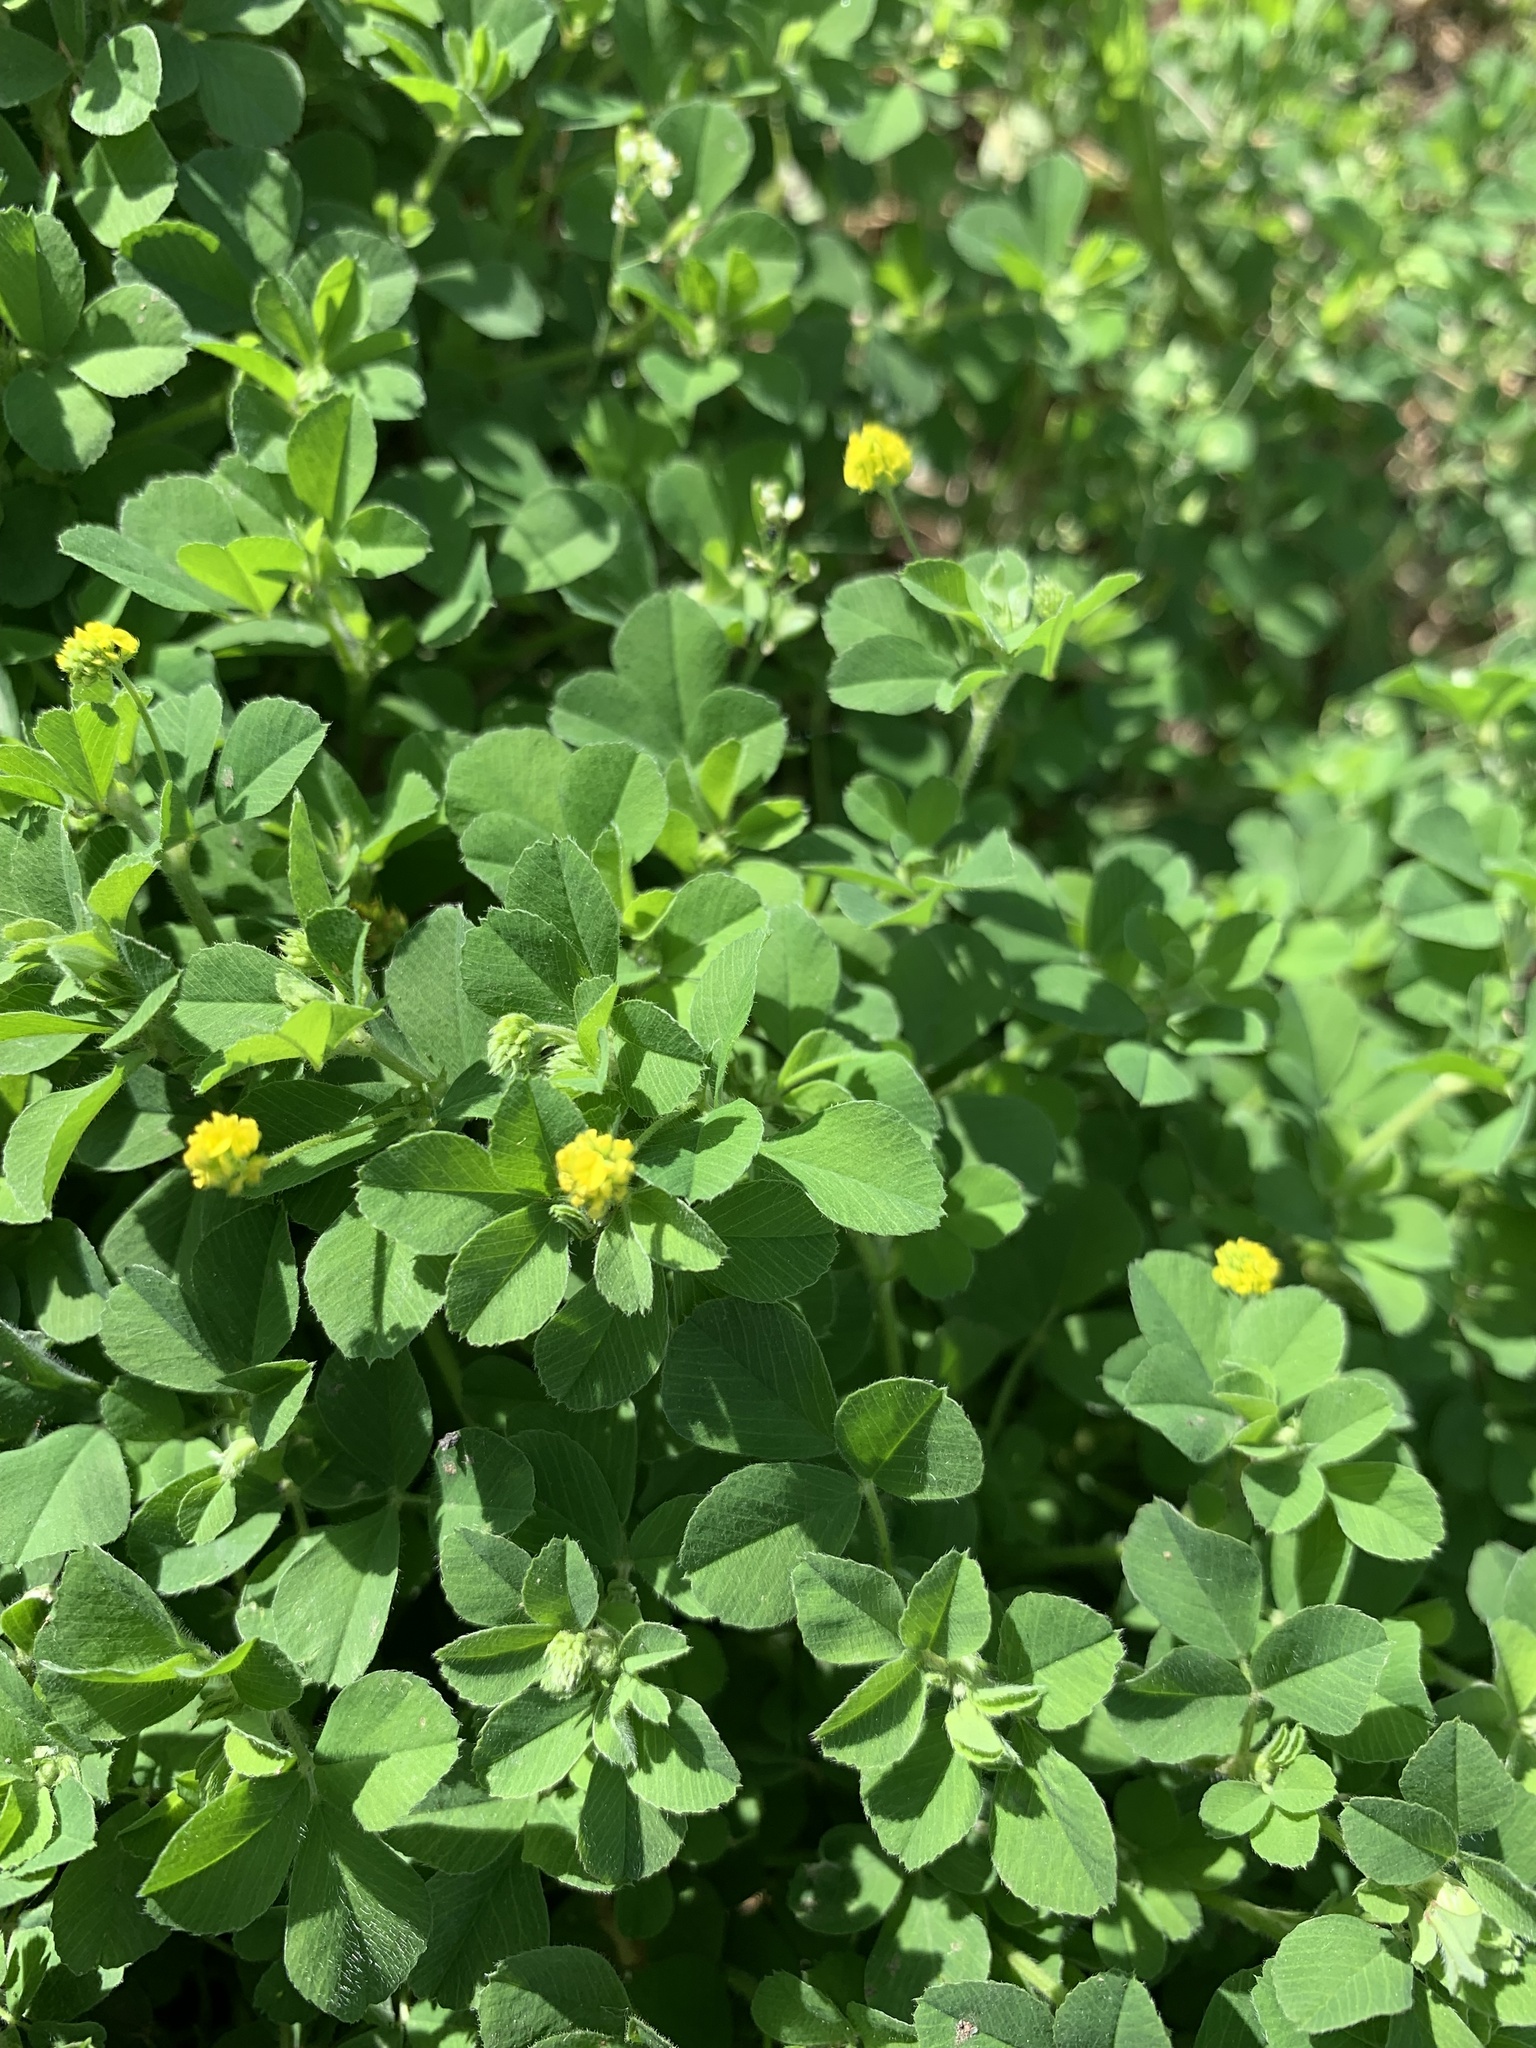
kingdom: Plantae
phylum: Tracheophyta
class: Magnoliopsida
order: Fabales
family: Fabaceae
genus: Medicago
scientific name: Medicago lupulina
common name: Black medick
